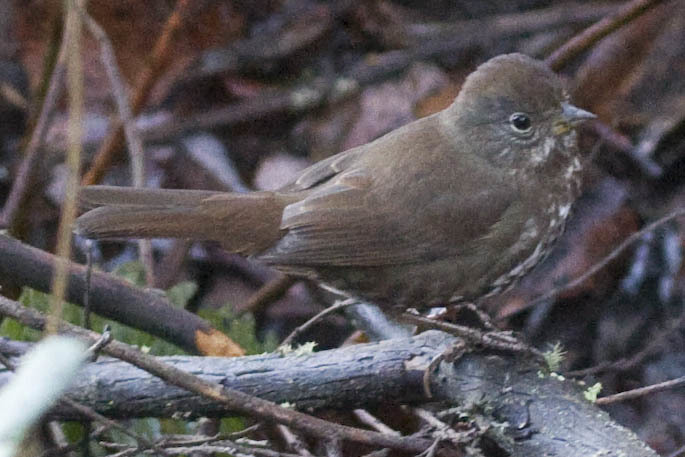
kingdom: Animalia
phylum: Chordata
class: Aves
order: Passeriformes
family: Passerellidae
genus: Passerella
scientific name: Passerella iliaca
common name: Fox sparrow
